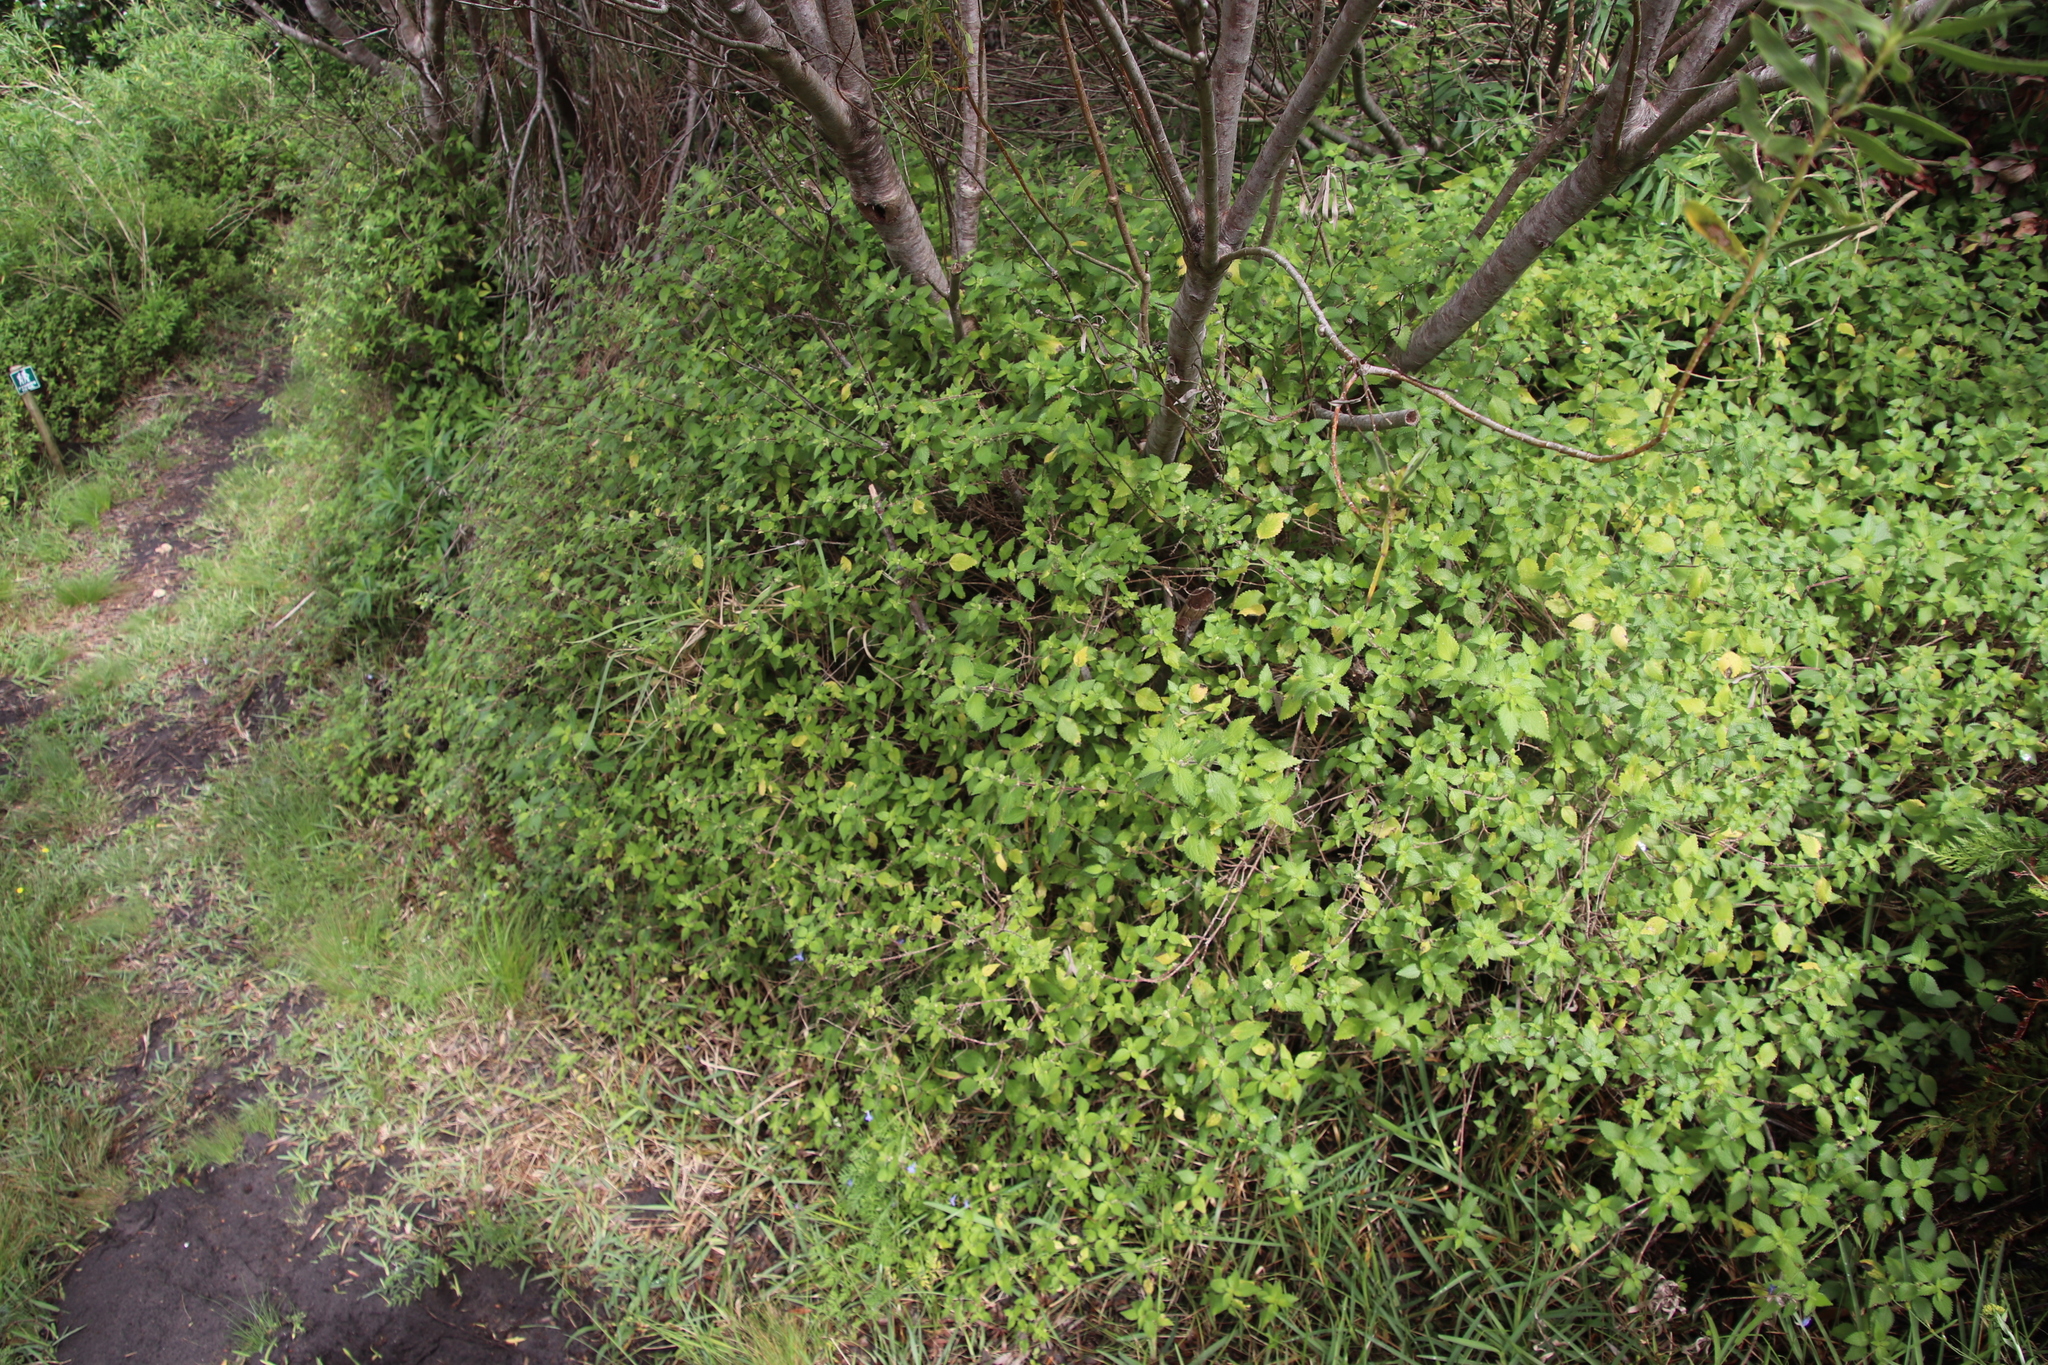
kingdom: Plantae
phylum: Tracheophyta
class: Magnoliopsida
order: Rosales
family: Urticaceae
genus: Droguetia
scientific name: Droguetia iners
